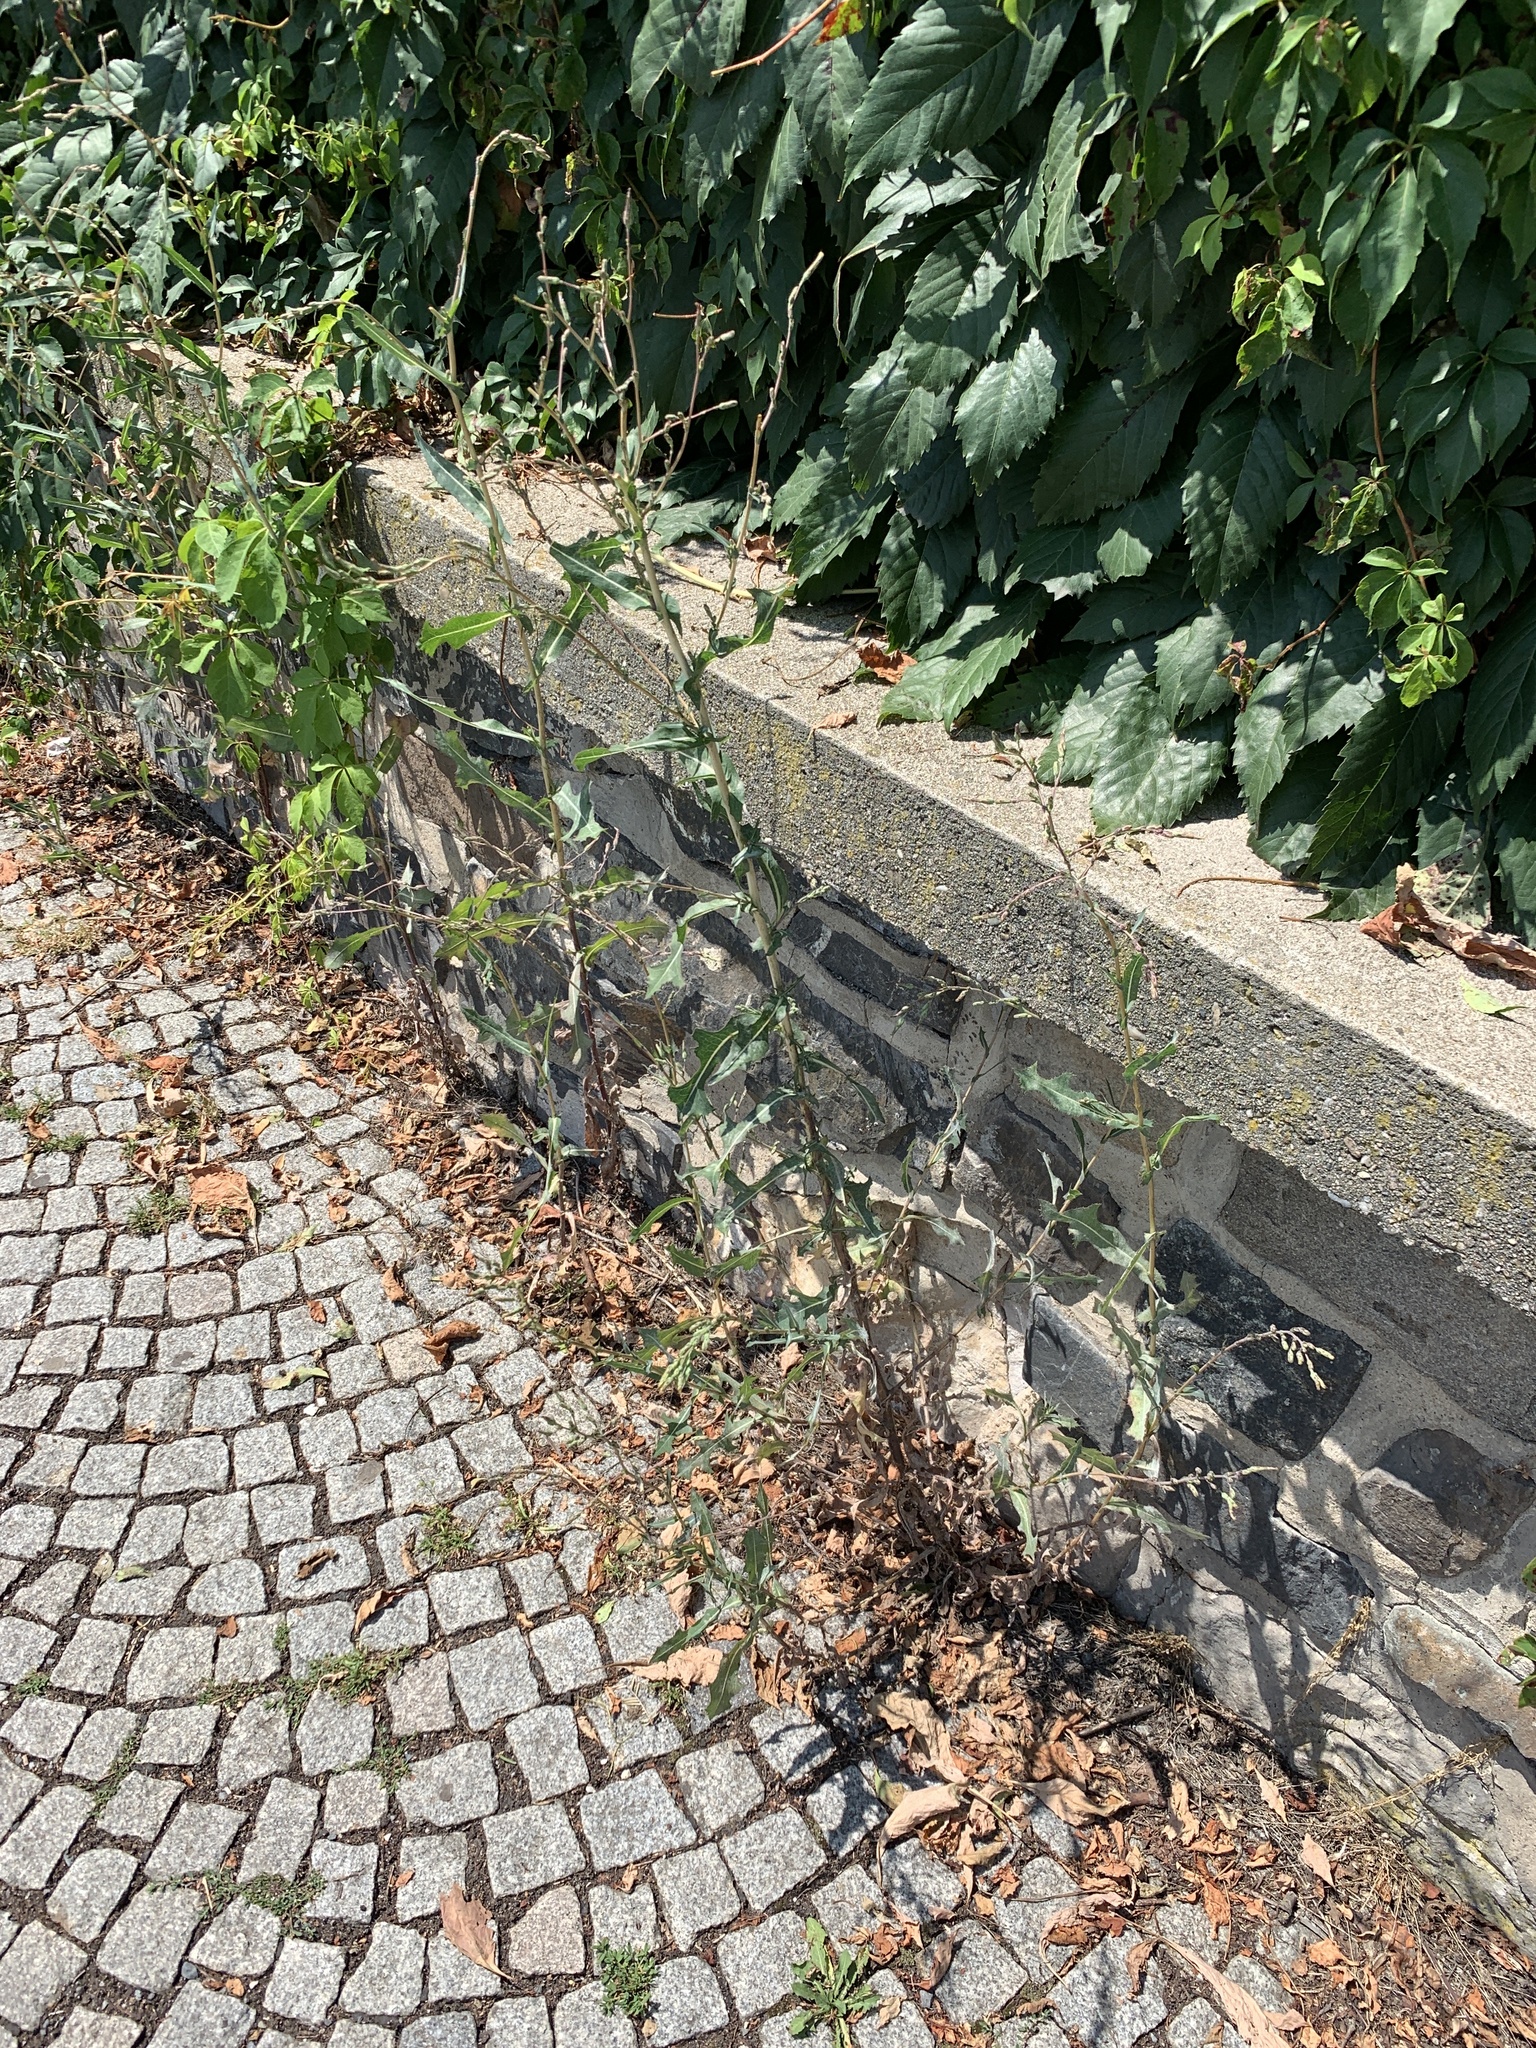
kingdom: Plantae
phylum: Tracheophyta
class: Magnoliopsida
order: Asterales
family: Asteraceae
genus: Lactuca
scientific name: Lactuca serriola
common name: Prickly lettuce
